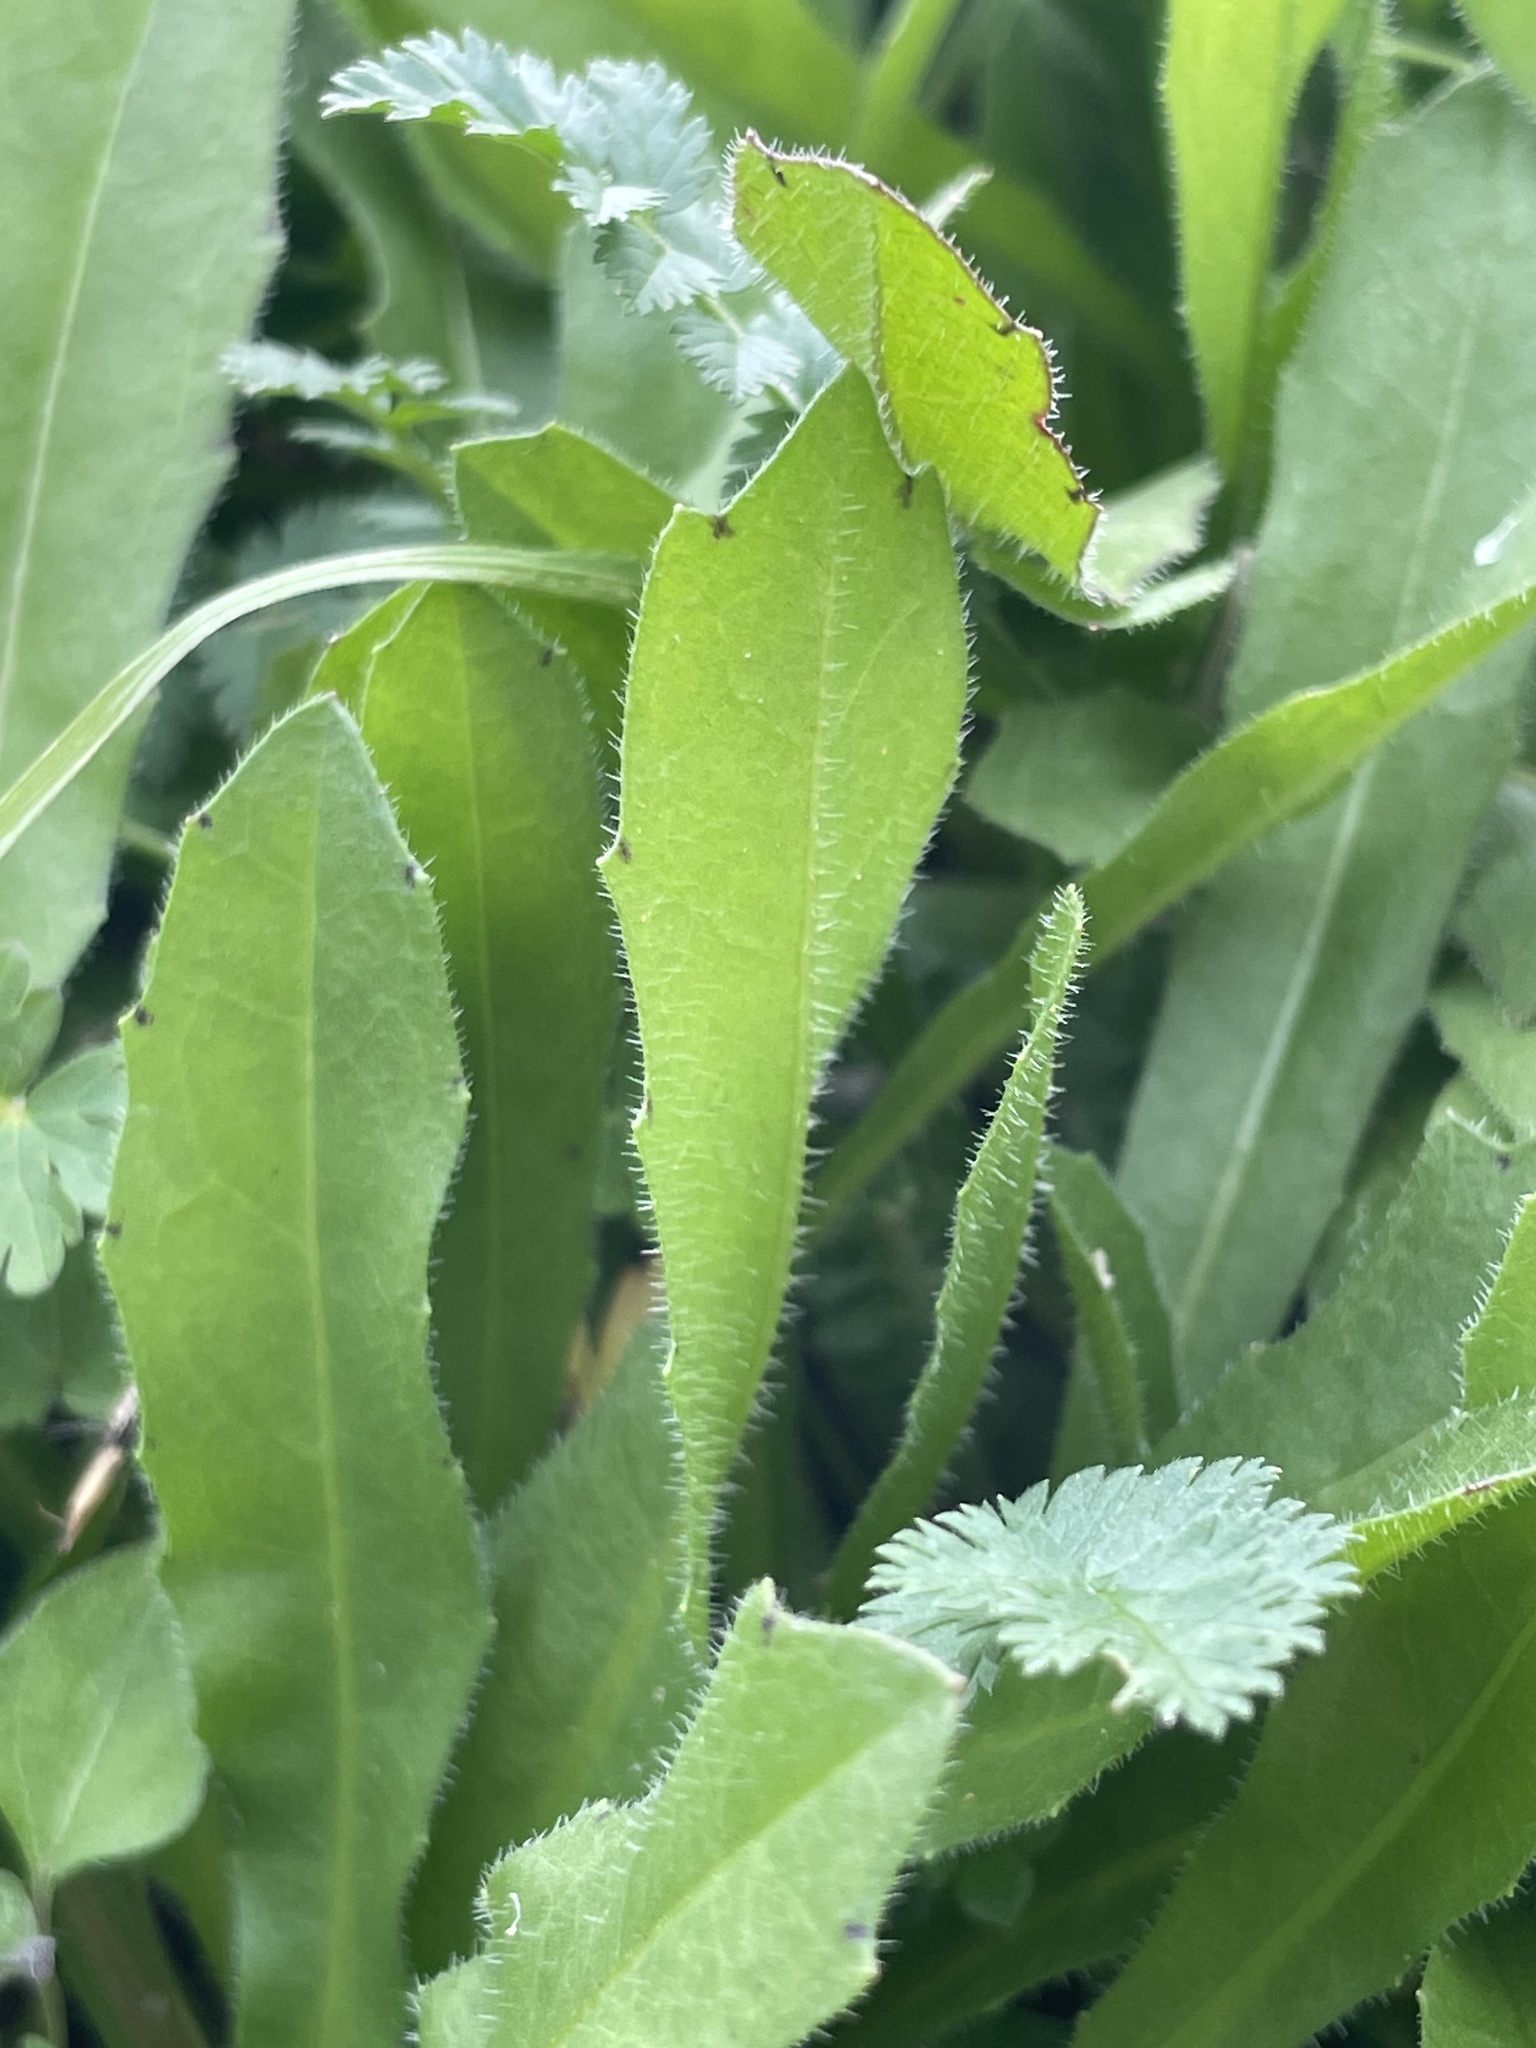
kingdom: Plantae
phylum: Tracheophyta
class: Magnoliopsida
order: Asterales
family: Asteraceae
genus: Hedypnois
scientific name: Hedypnois rhagadioloides
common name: Cretan weed
